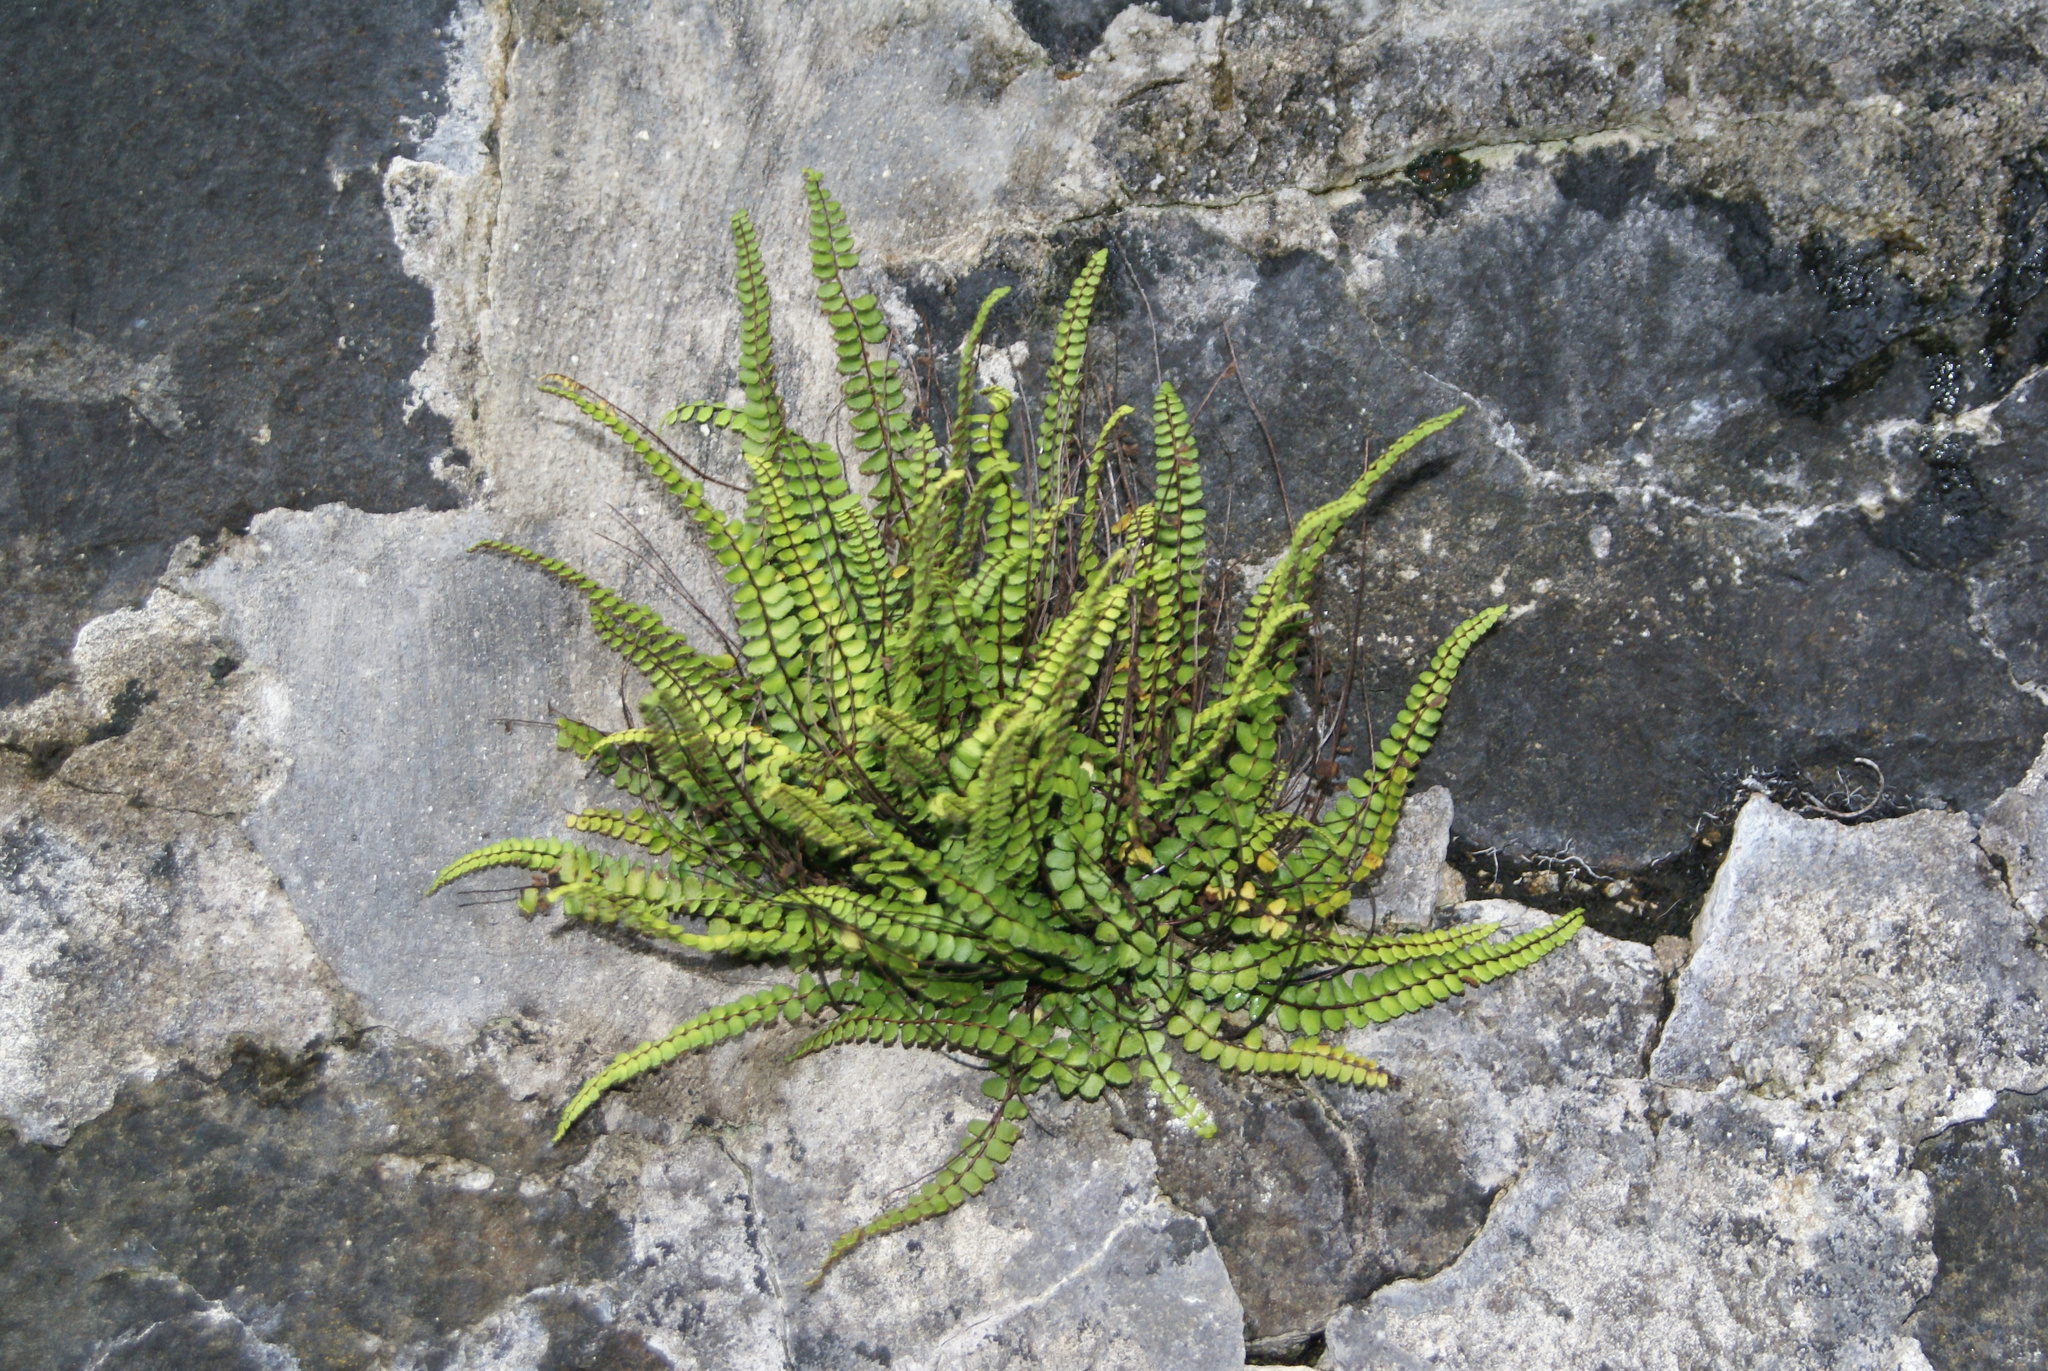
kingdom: Plantae
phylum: Tracheophyta
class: Polypodiopsida
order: Polypodiales
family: Aspleniaceae
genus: Asplenium
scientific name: Asplenium trichomanes
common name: Maidenhair spleenwort
